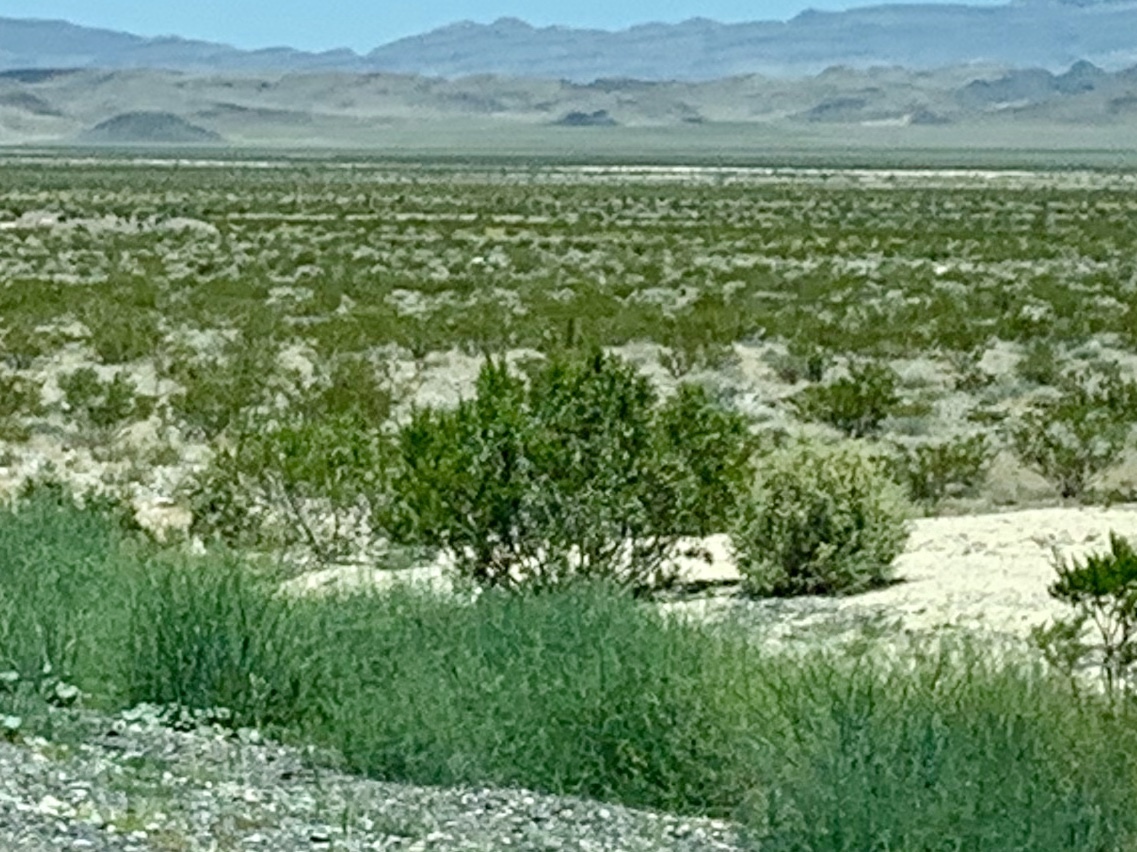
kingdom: Plantae
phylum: Tracheophyta
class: Magnoliopsida
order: Zygophyllales
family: Zygophyllaceae
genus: Larrea
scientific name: Larrea tridentata
